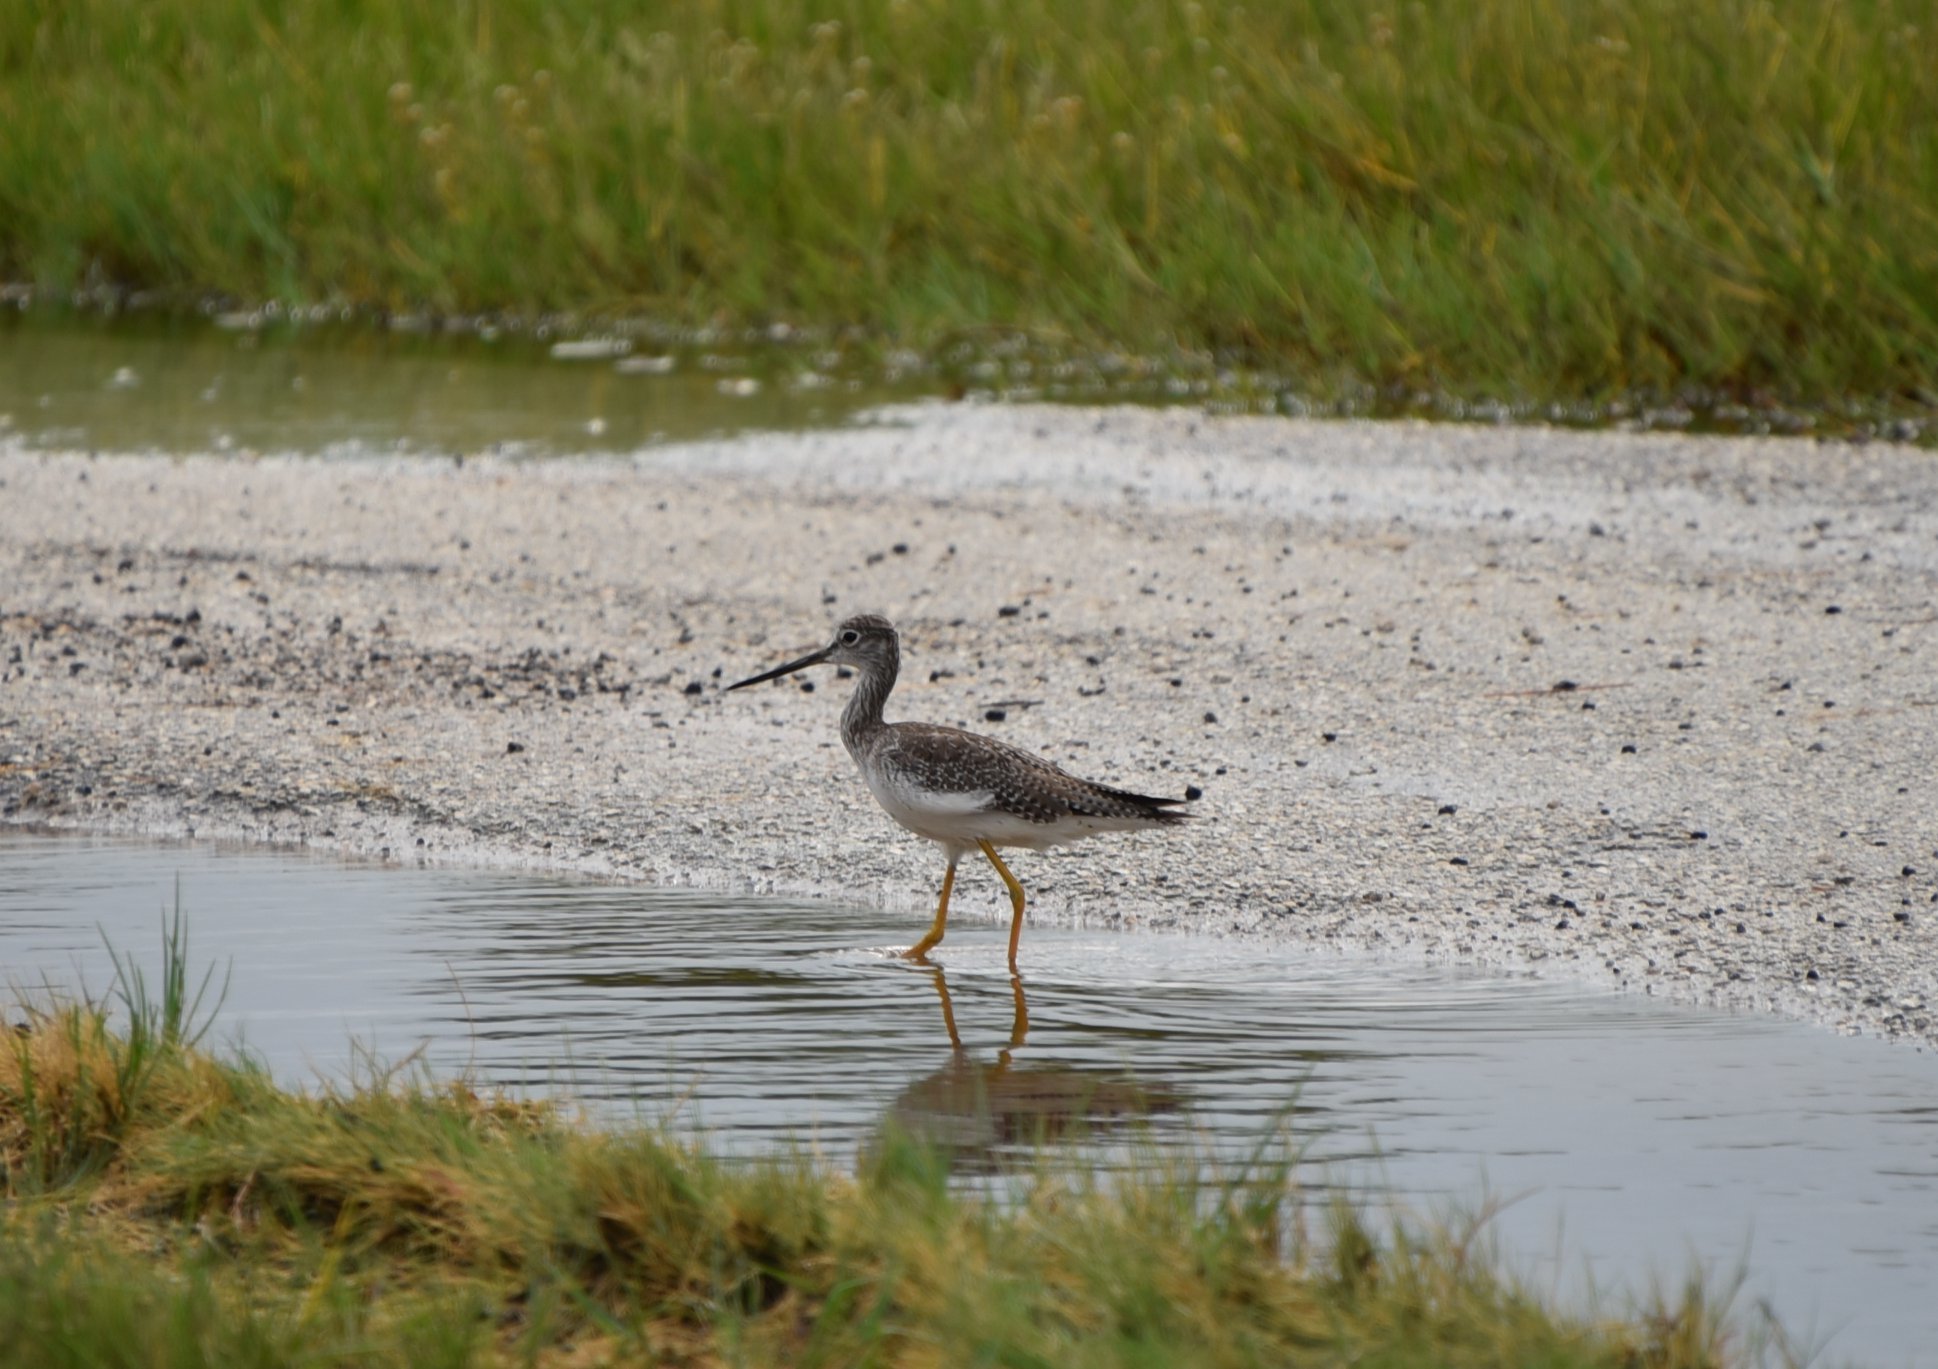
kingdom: Animalia
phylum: Chordata
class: Aves
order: Charadriiformes
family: Scolopacidae
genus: Tringa
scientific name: Tringa melanoleuca
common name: Greater yellowlegs
